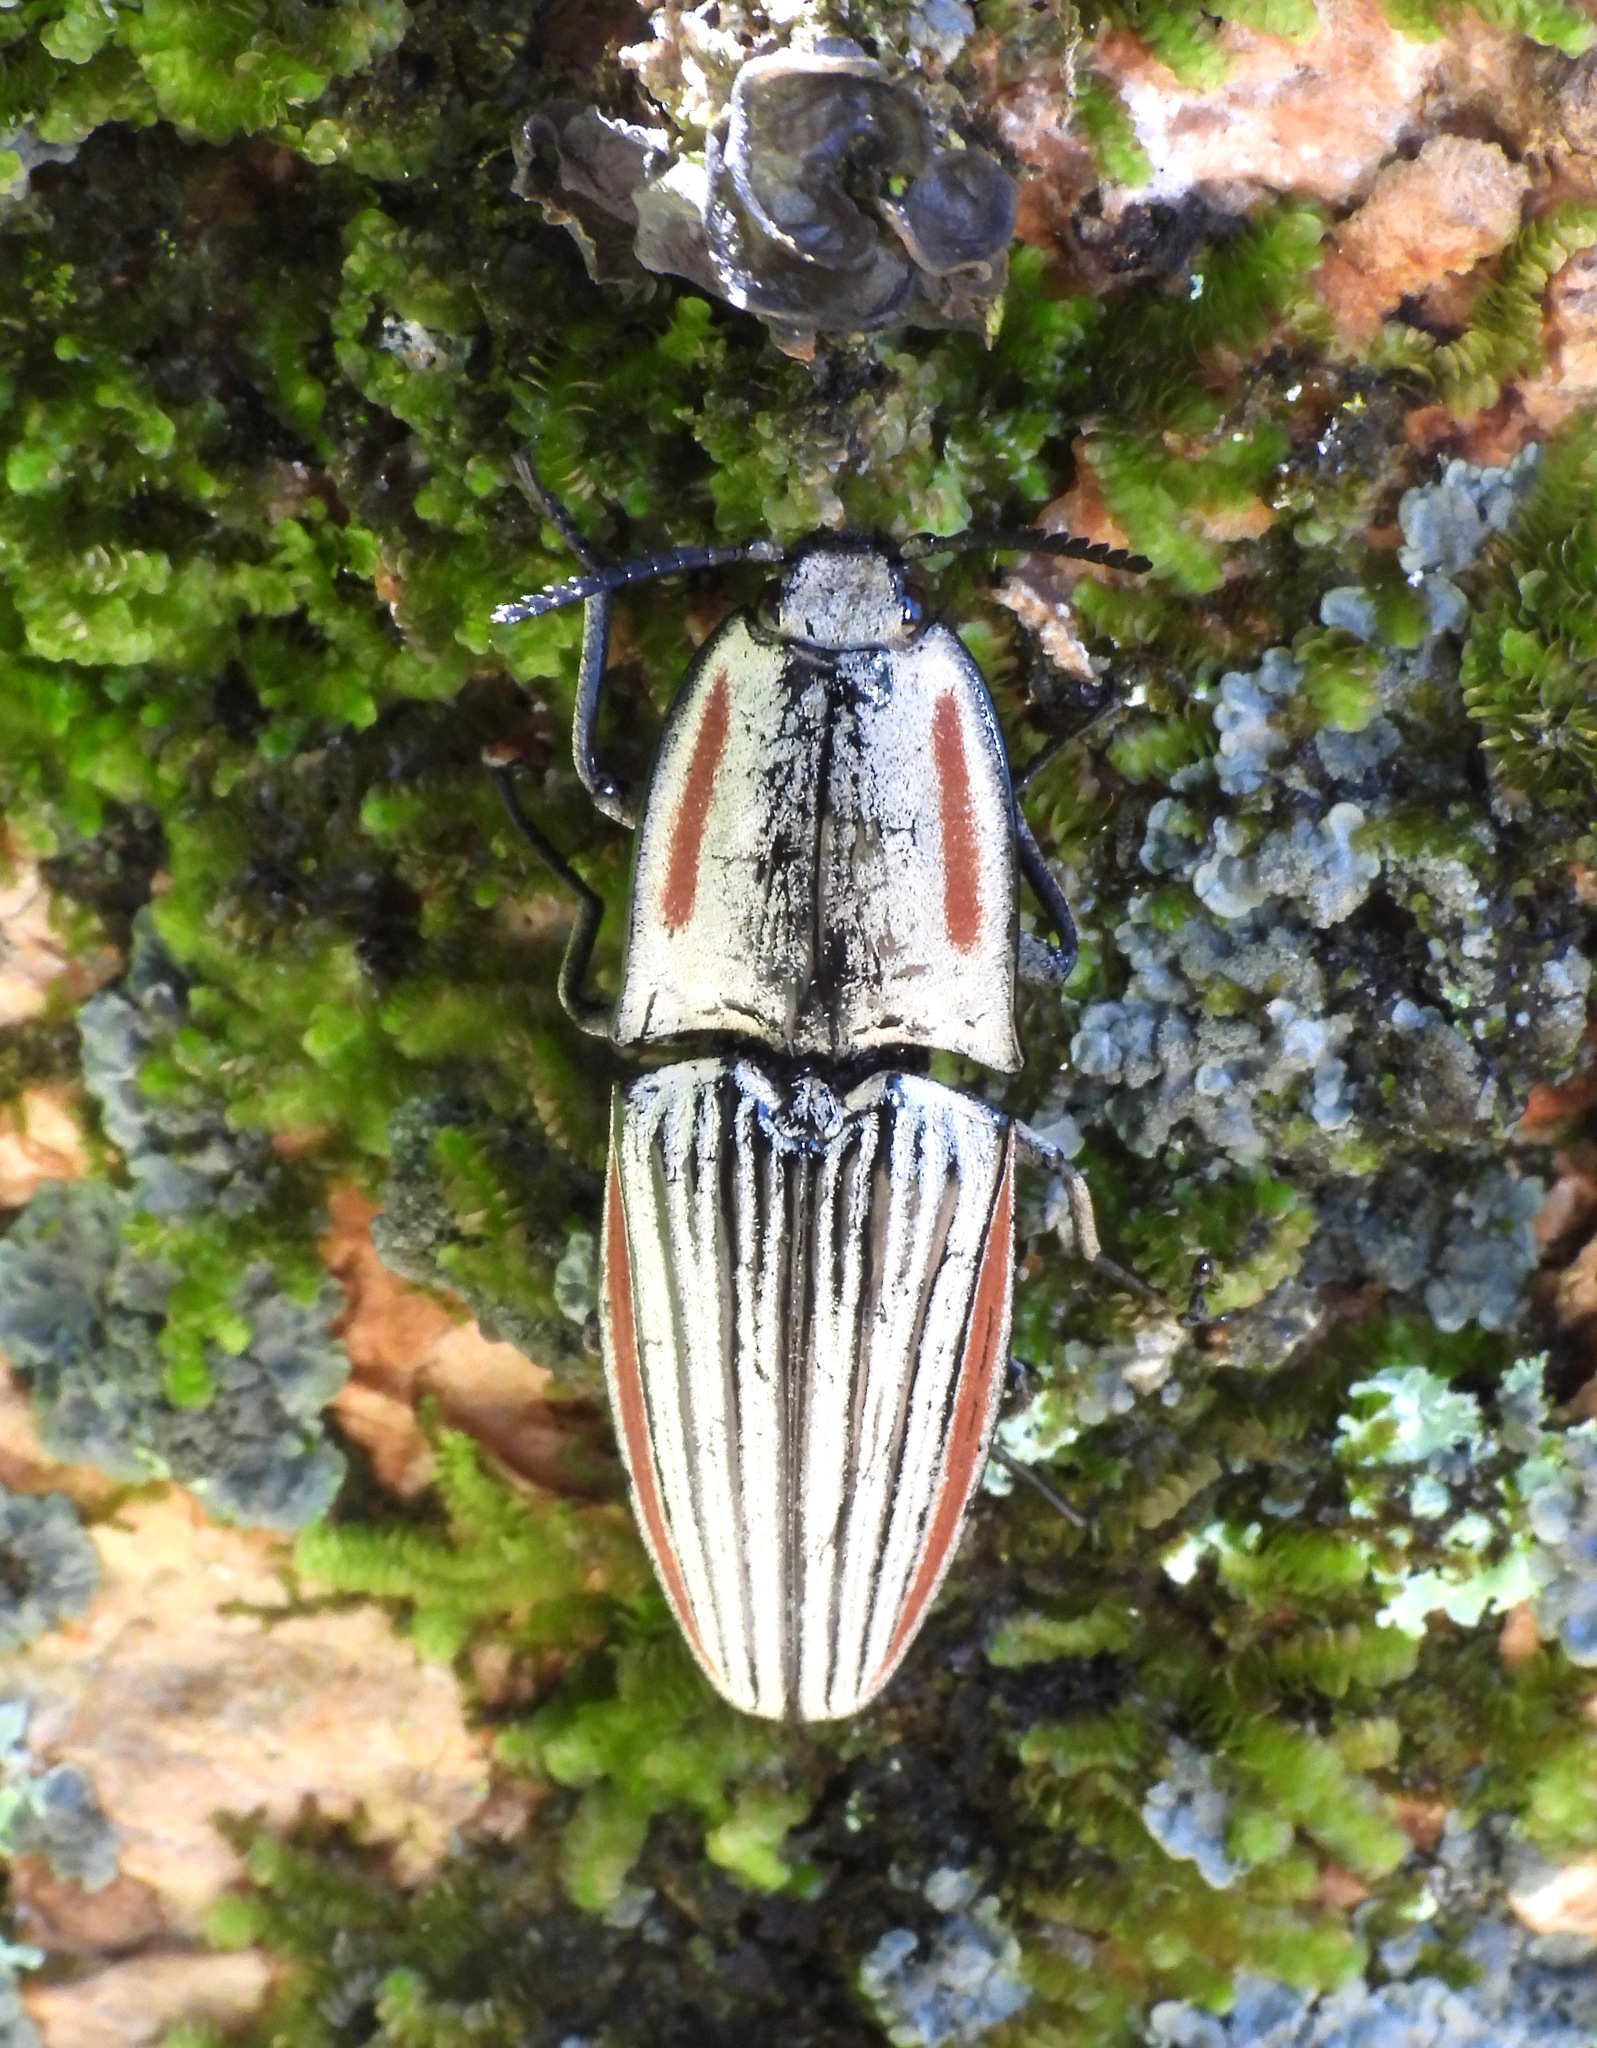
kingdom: Animalia
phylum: Arthropoda
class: Insecta
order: Coleoptera
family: Elateridae
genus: Chalcolepidius
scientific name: Chalcolepidius erythroloma
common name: Click beetle
